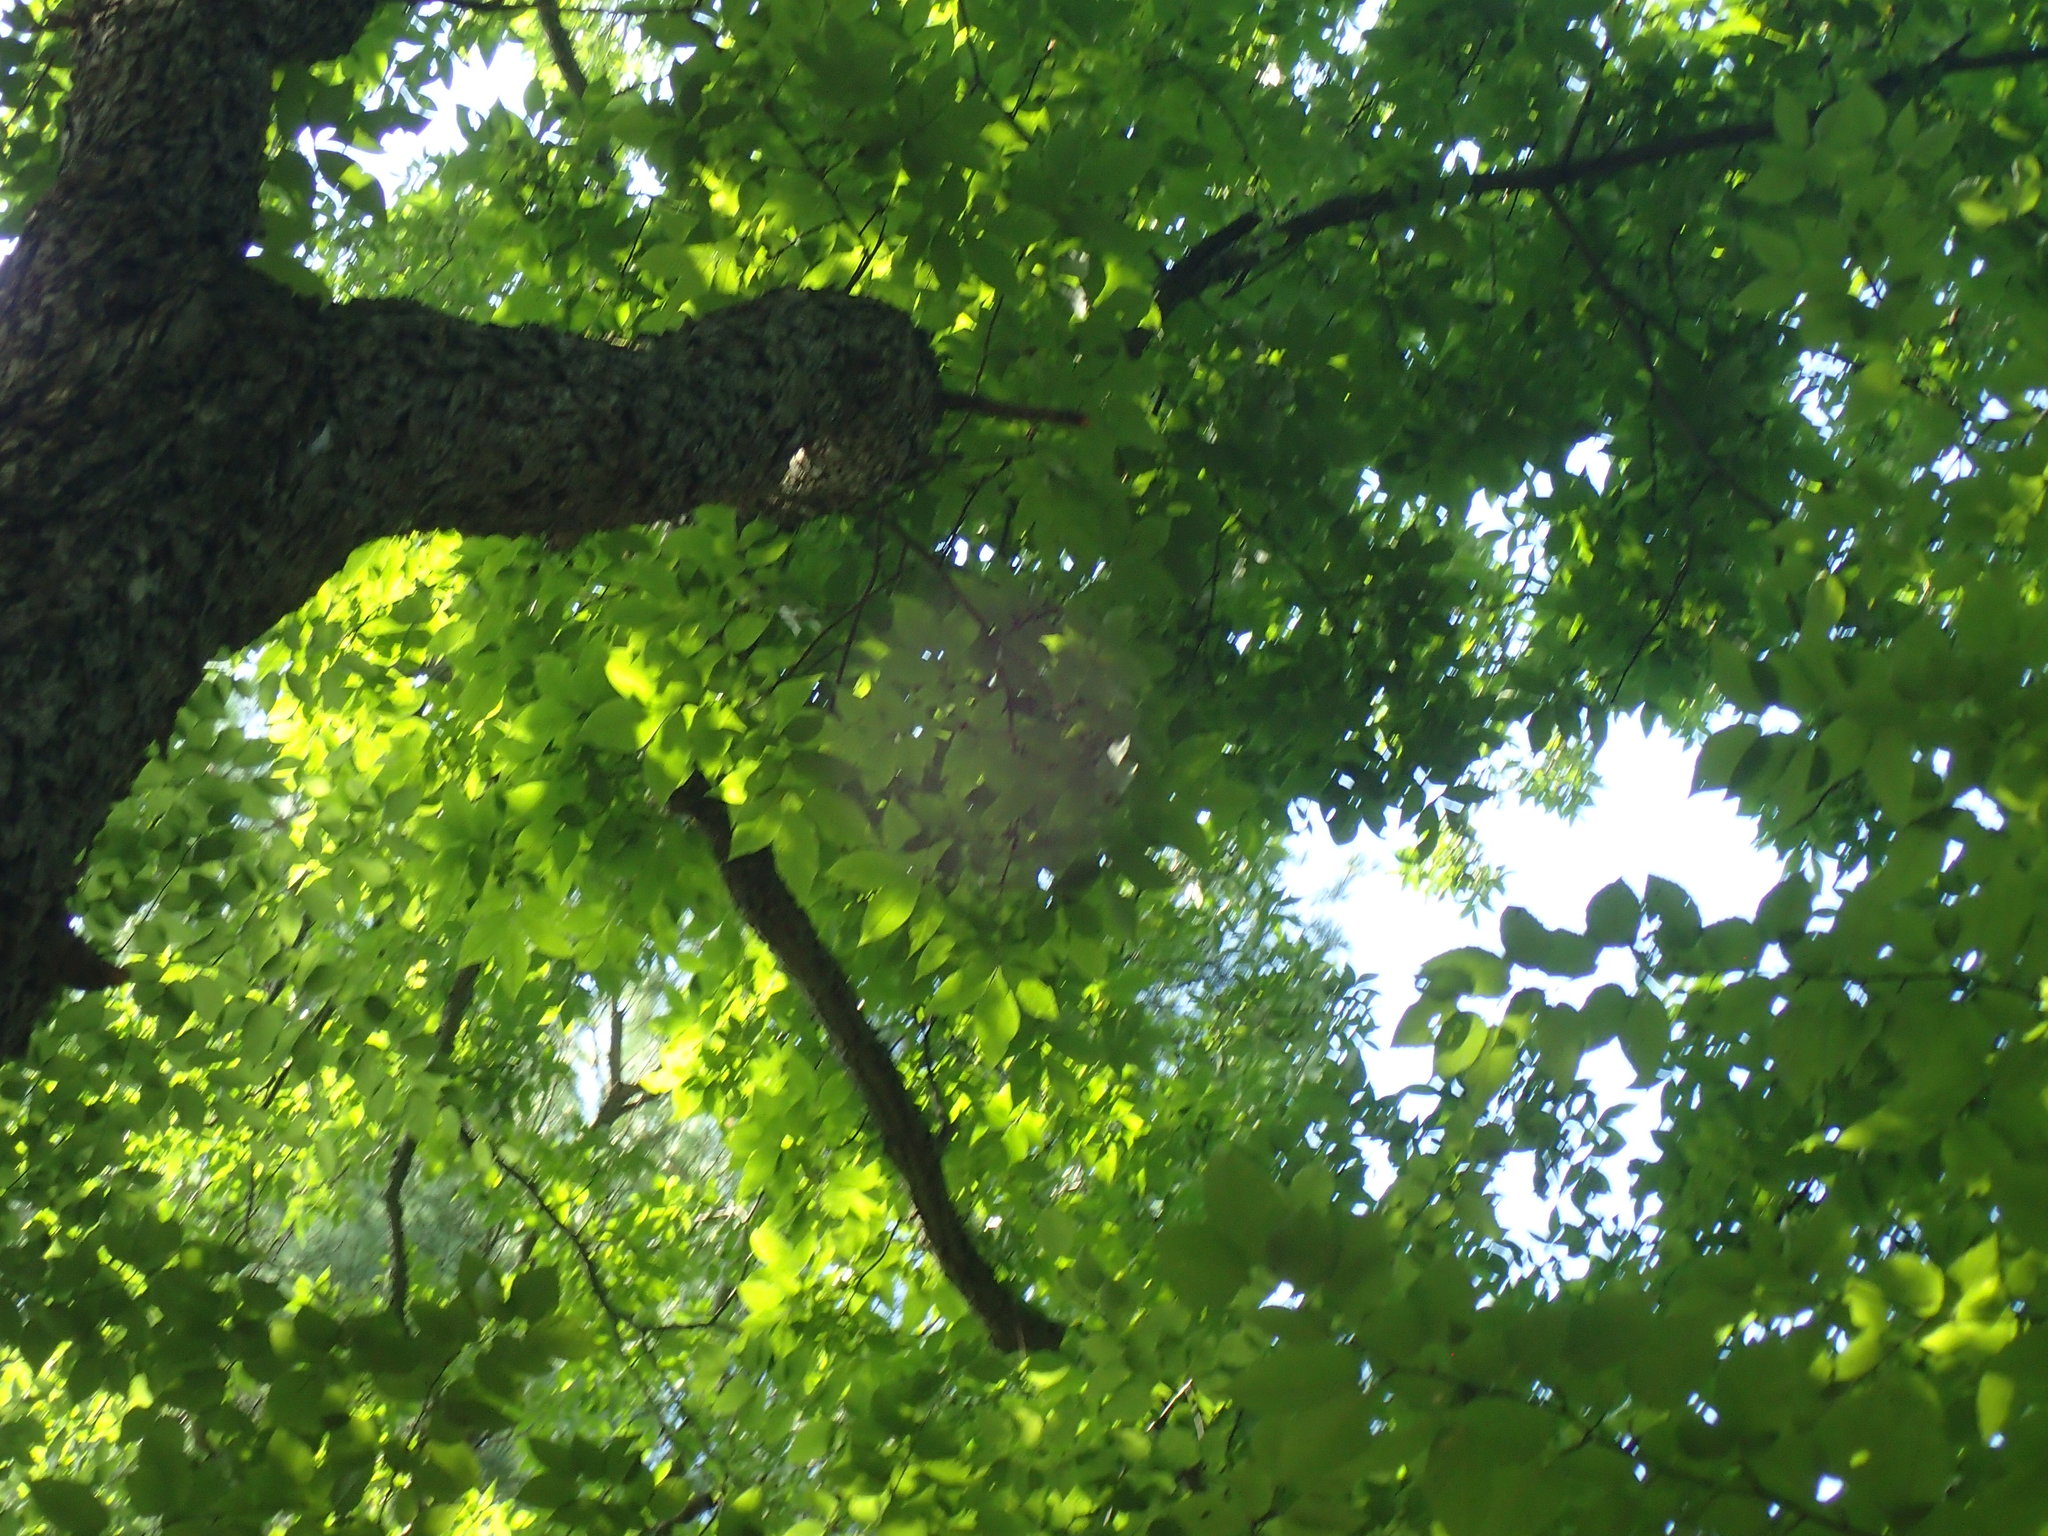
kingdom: Plantae
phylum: Tracheophyta
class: Magnoliopsida
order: Fagales
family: Juglandaceae
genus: Carya
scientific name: Carya glabra
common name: Pignut hickory
